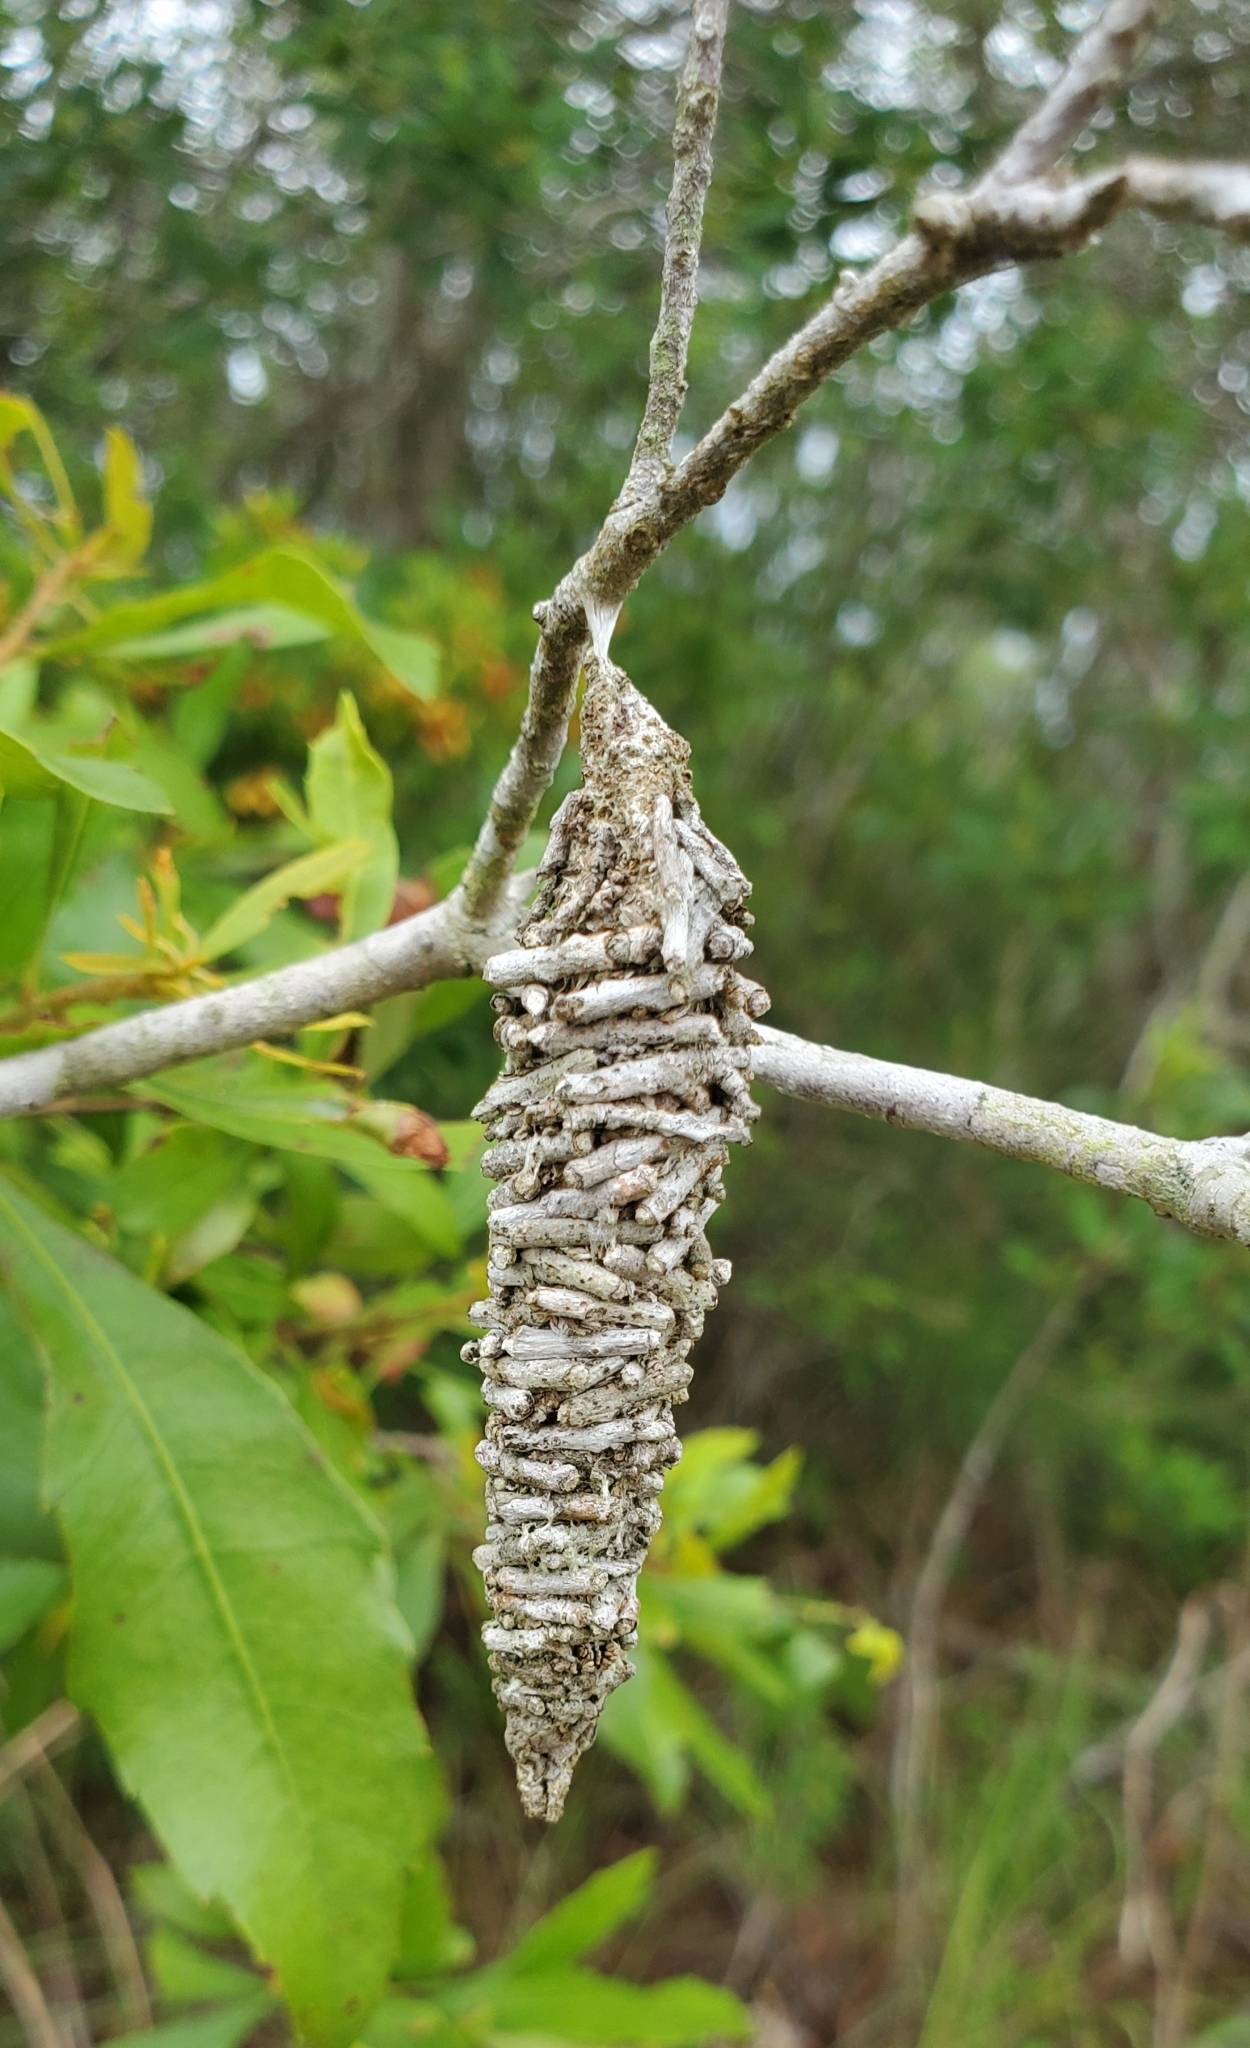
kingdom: Animalia
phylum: Arthropoda
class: Insecta
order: Lepidoptera
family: Psychidae
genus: Oiketicus
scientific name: Oiketicus
